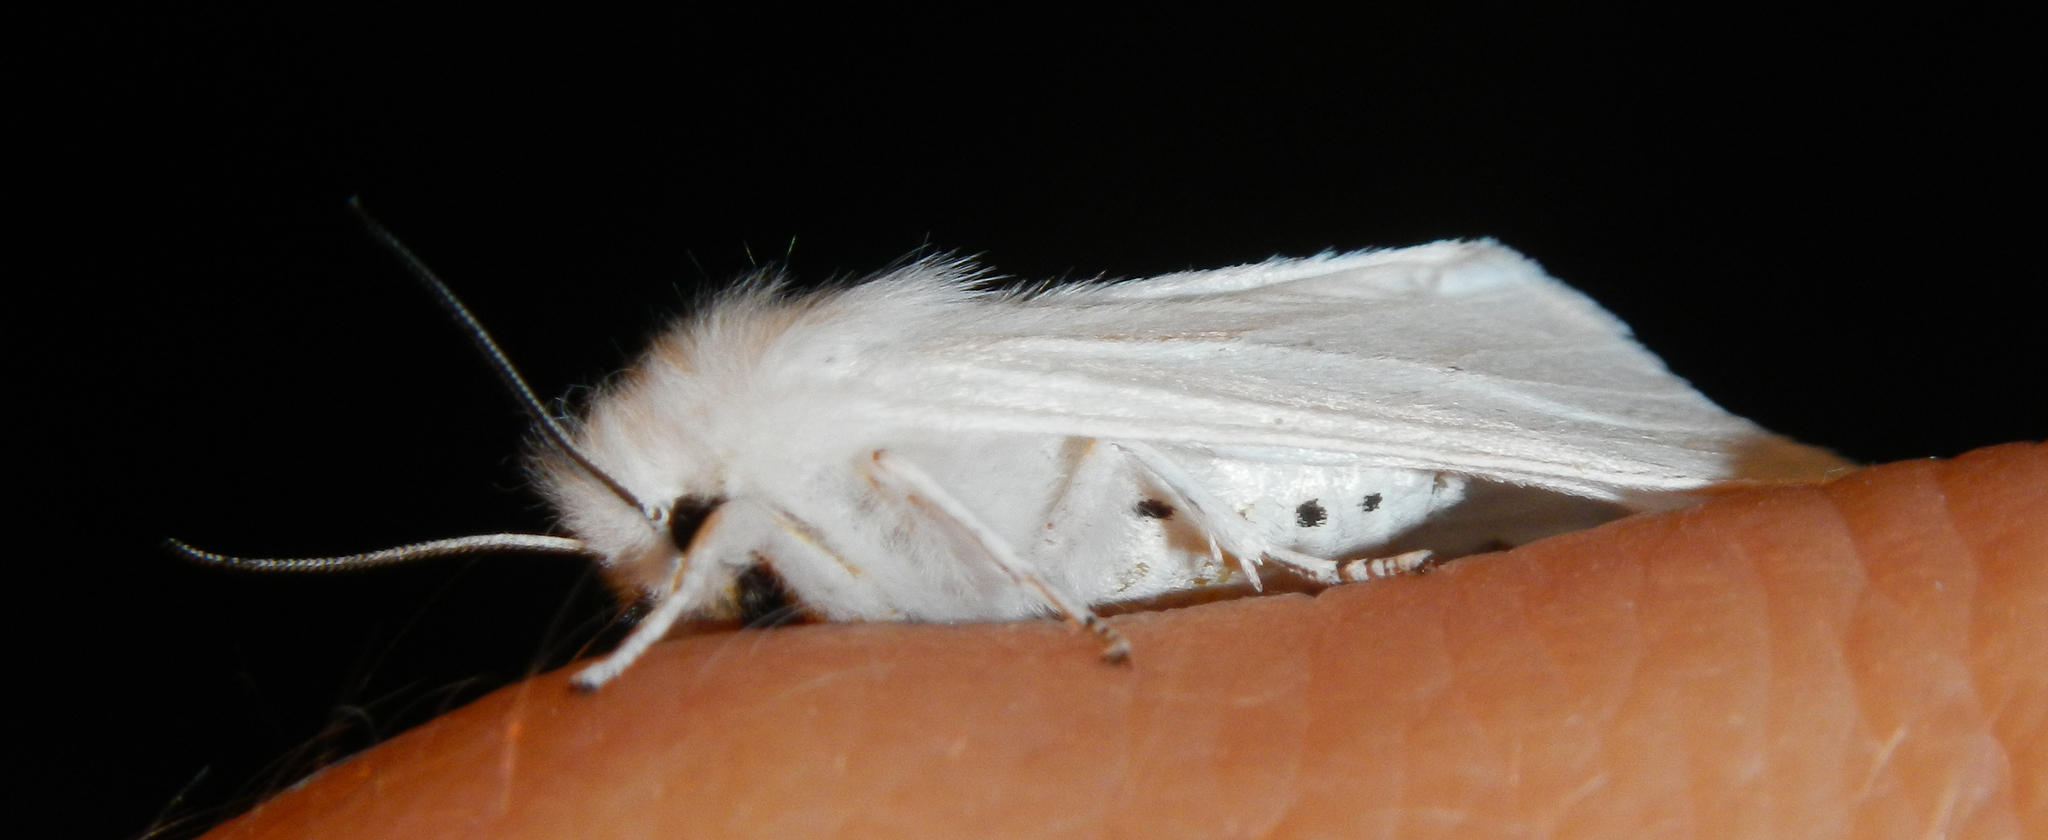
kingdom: Animalia
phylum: Arthropoda
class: Insecta
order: Lepidoptera
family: Erebidae
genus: Spilosoma
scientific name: Spilosoma virginica
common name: Virginia tiger moth
